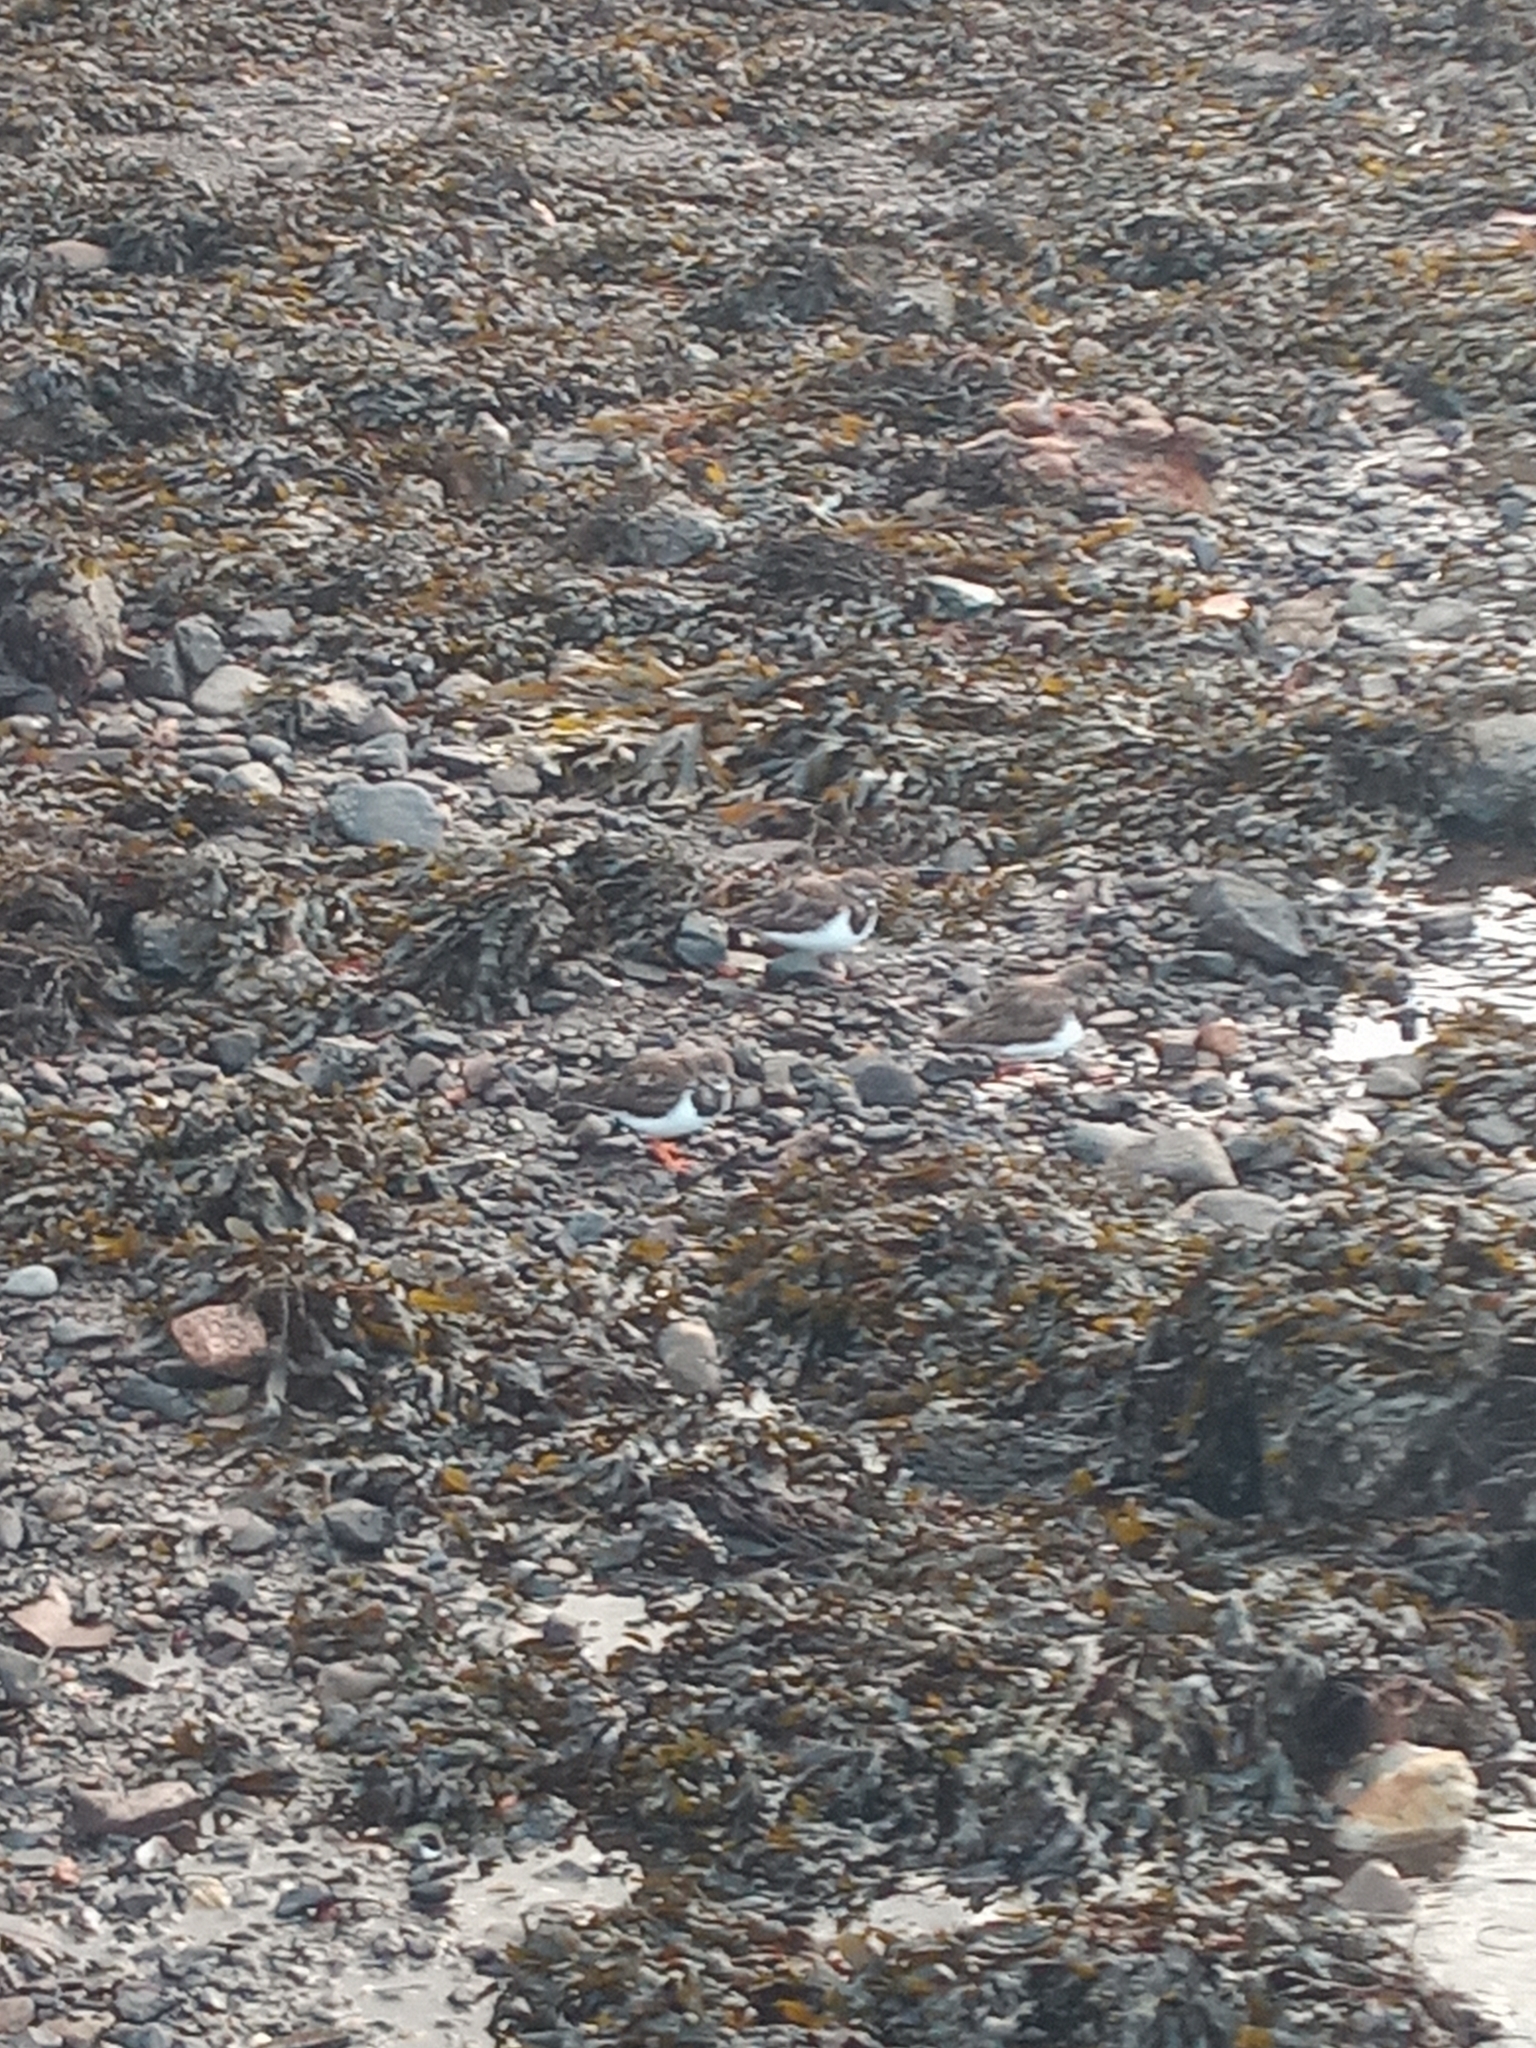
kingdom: Animalia
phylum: Chordata
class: Aves
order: Charadriiformes
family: Scolopacidae
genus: Arenaria
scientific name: Arenaria interpres
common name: Ruddy turnstone
